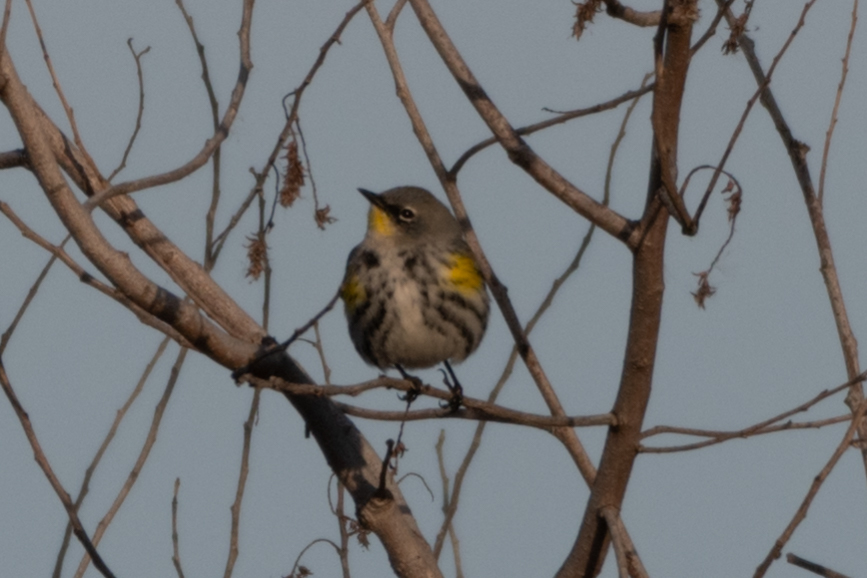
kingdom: Animalia
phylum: Chordata
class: Aves
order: Passeriformes
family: Parulidae
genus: Setophaga
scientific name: Setophaga coronata
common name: Myrtle warbler
